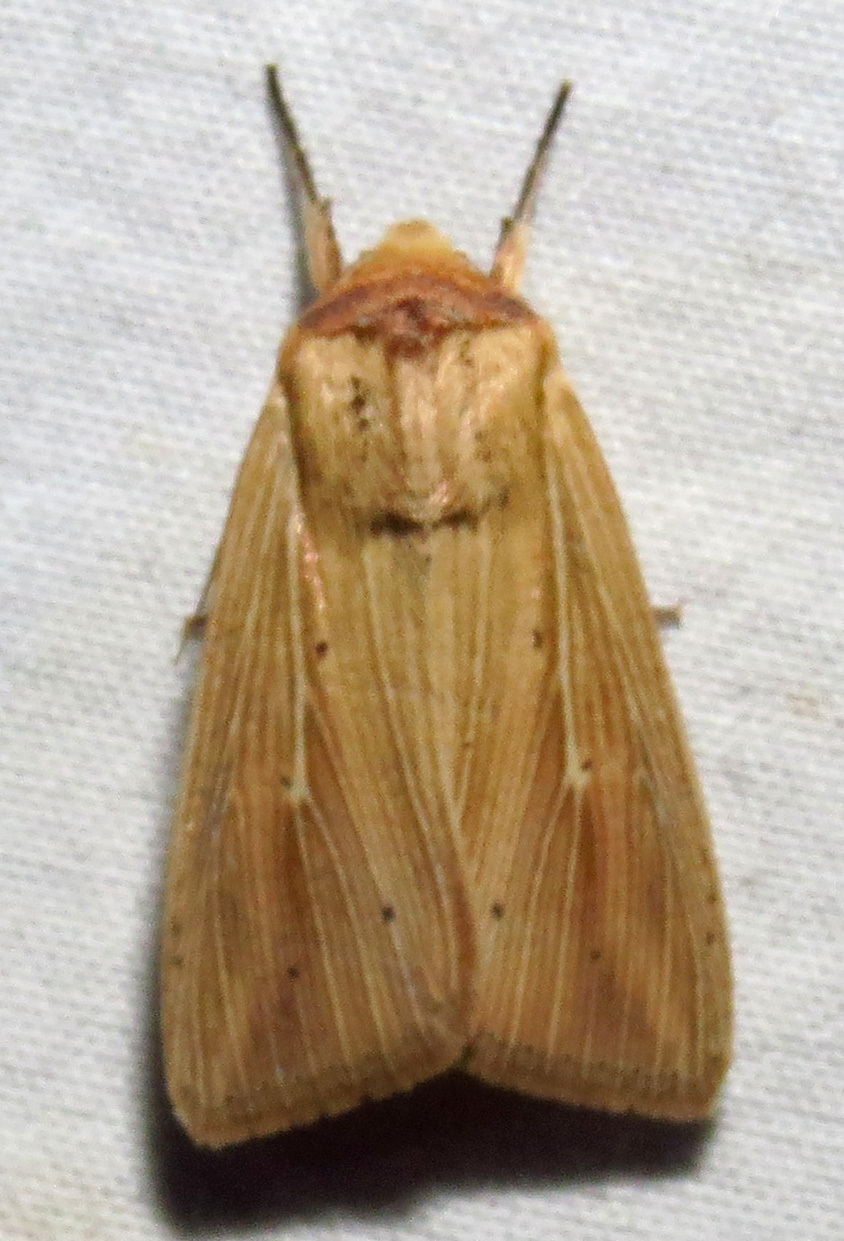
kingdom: Animalia
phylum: Arthropoda
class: Insecta
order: Lepidoptera
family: Noctuidae
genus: Leucania
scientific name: Leucania adjuta
